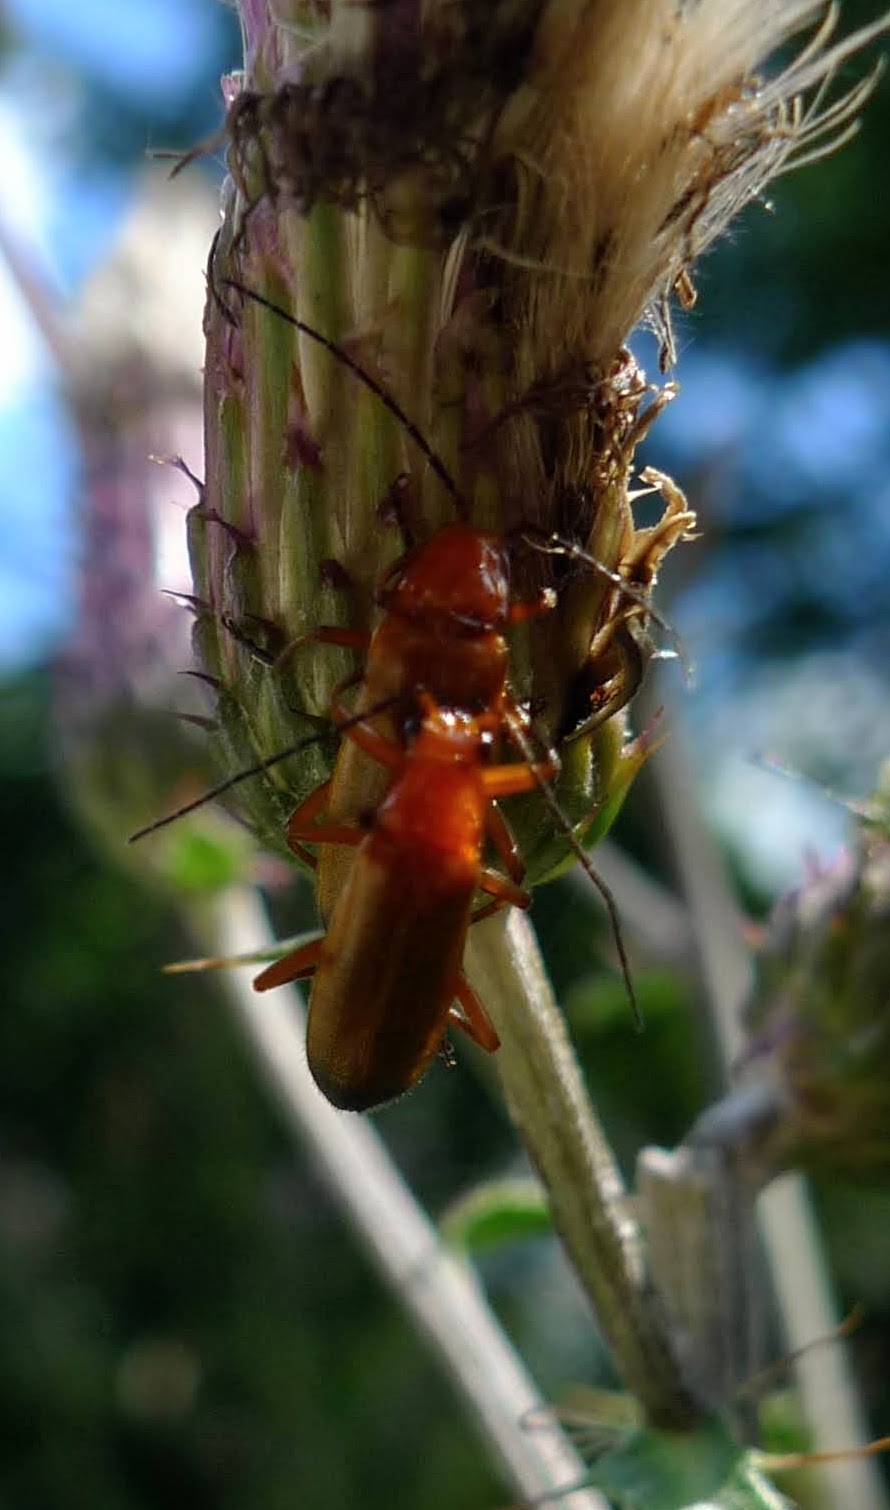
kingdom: Animalia
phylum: Arthropoda
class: Insecta
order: Coleoptera
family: Cantharidae
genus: Rhagonycha
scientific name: Rhagonycha fulva
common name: Common red soldier beetle
